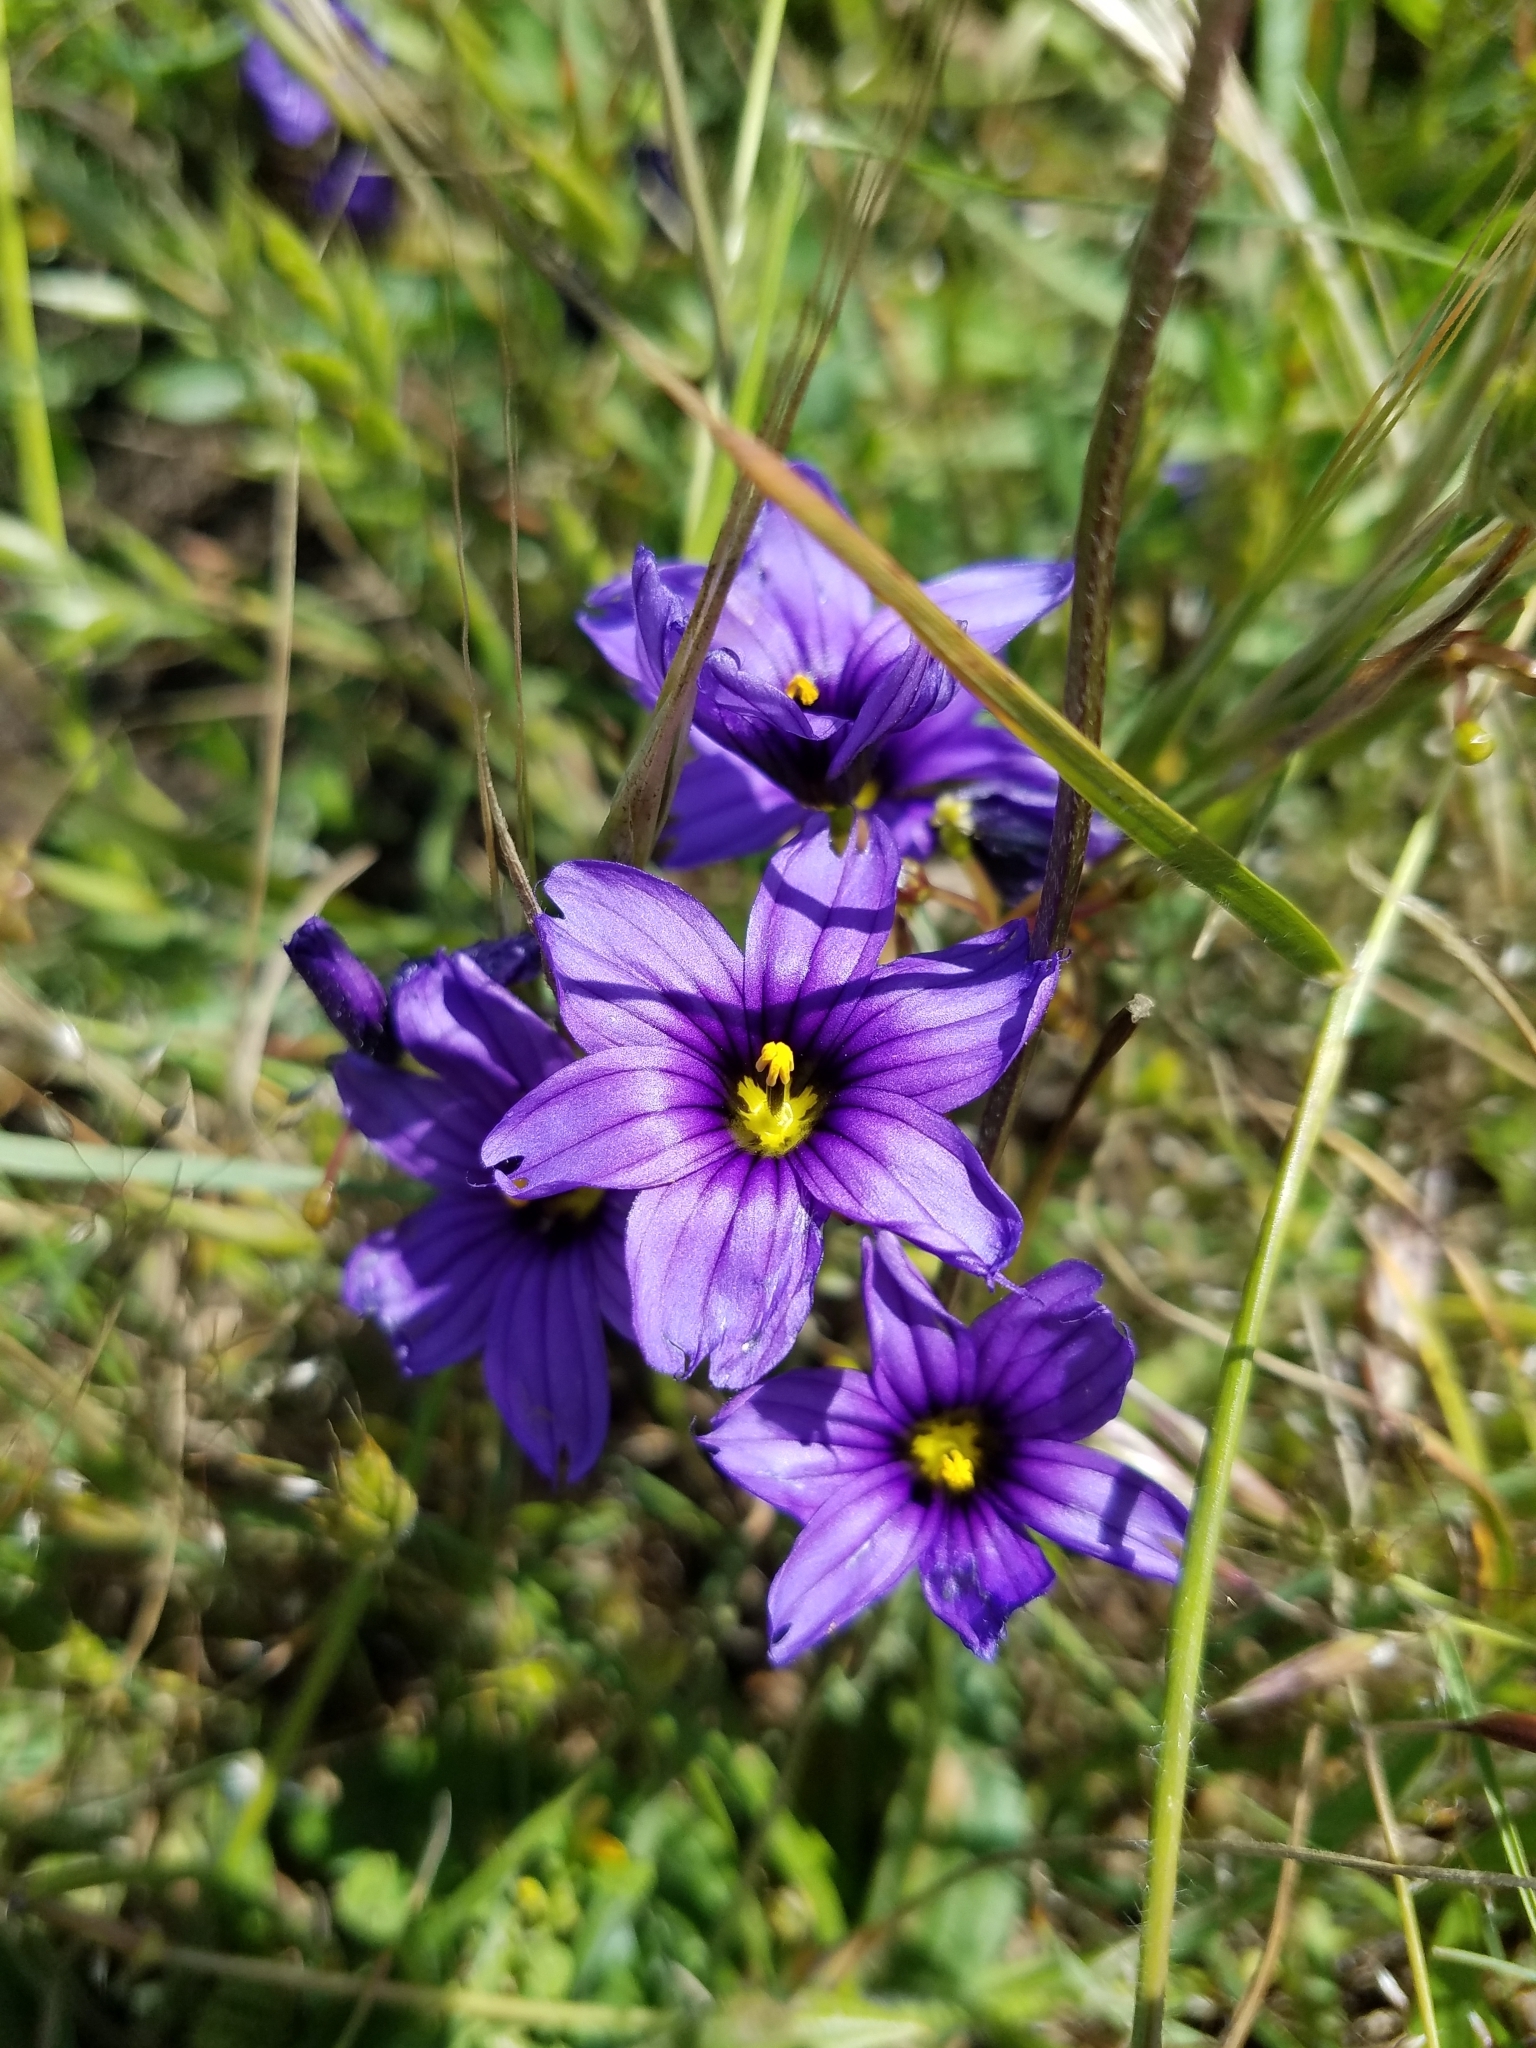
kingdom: Plantae
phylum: Tracheophyta
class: Liliopsida
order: Asparagales
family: Iridaceae
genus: Sisyrinchium
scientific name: Sisyrinchium bellum
